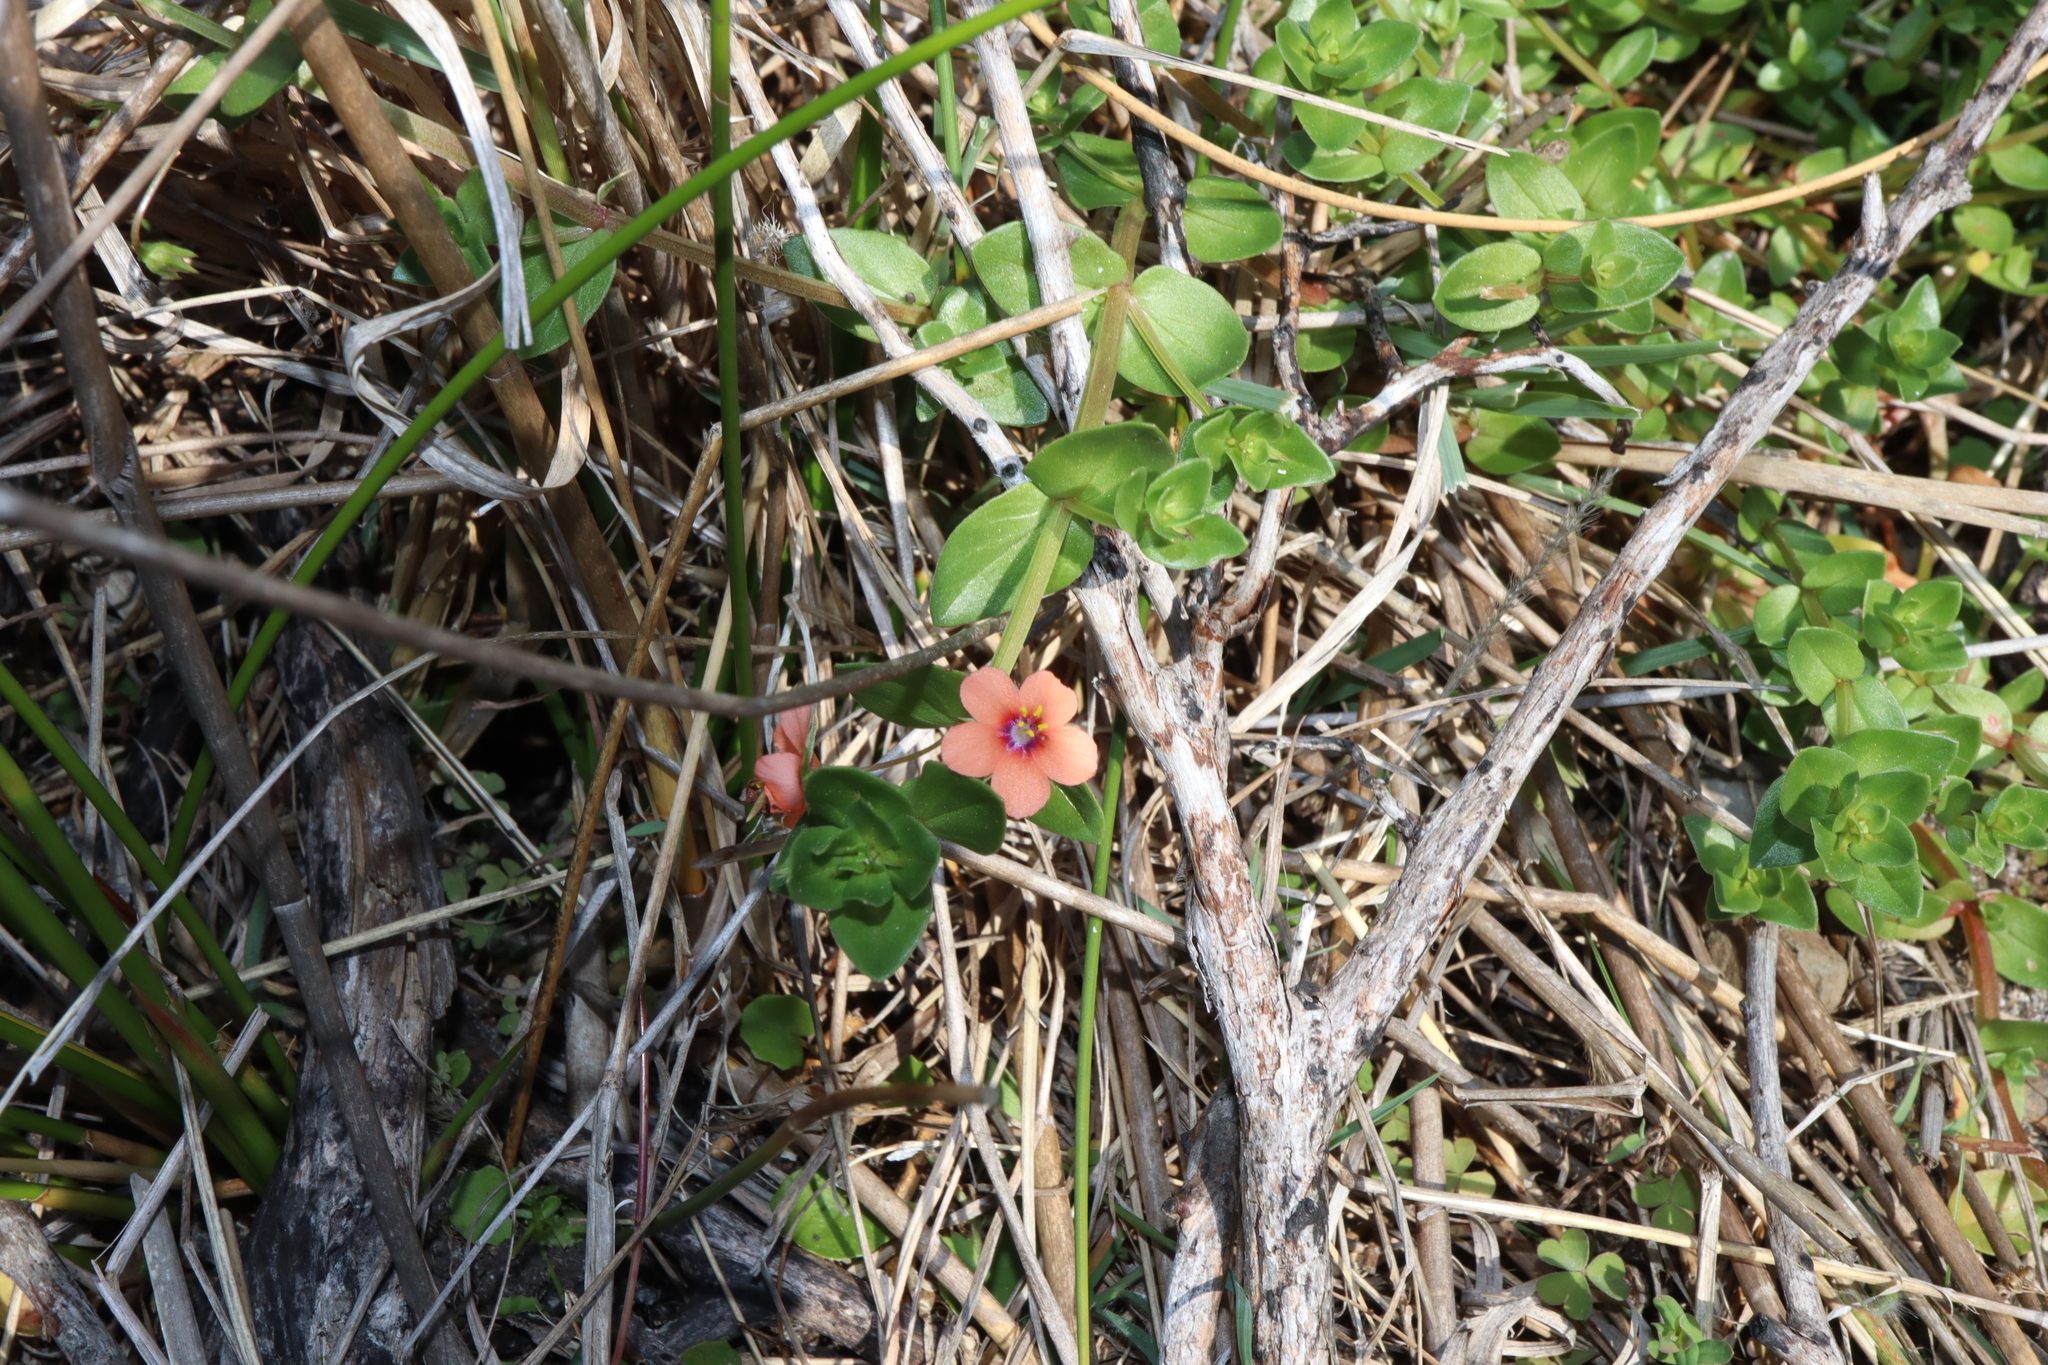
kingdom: Plantae
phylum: Tracheophyta
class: Magnoliopsida
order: Ericales
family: Primulaceae
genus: Lysimachia
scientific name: Lysimachia arvensis
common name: Scarlet pimpernel
